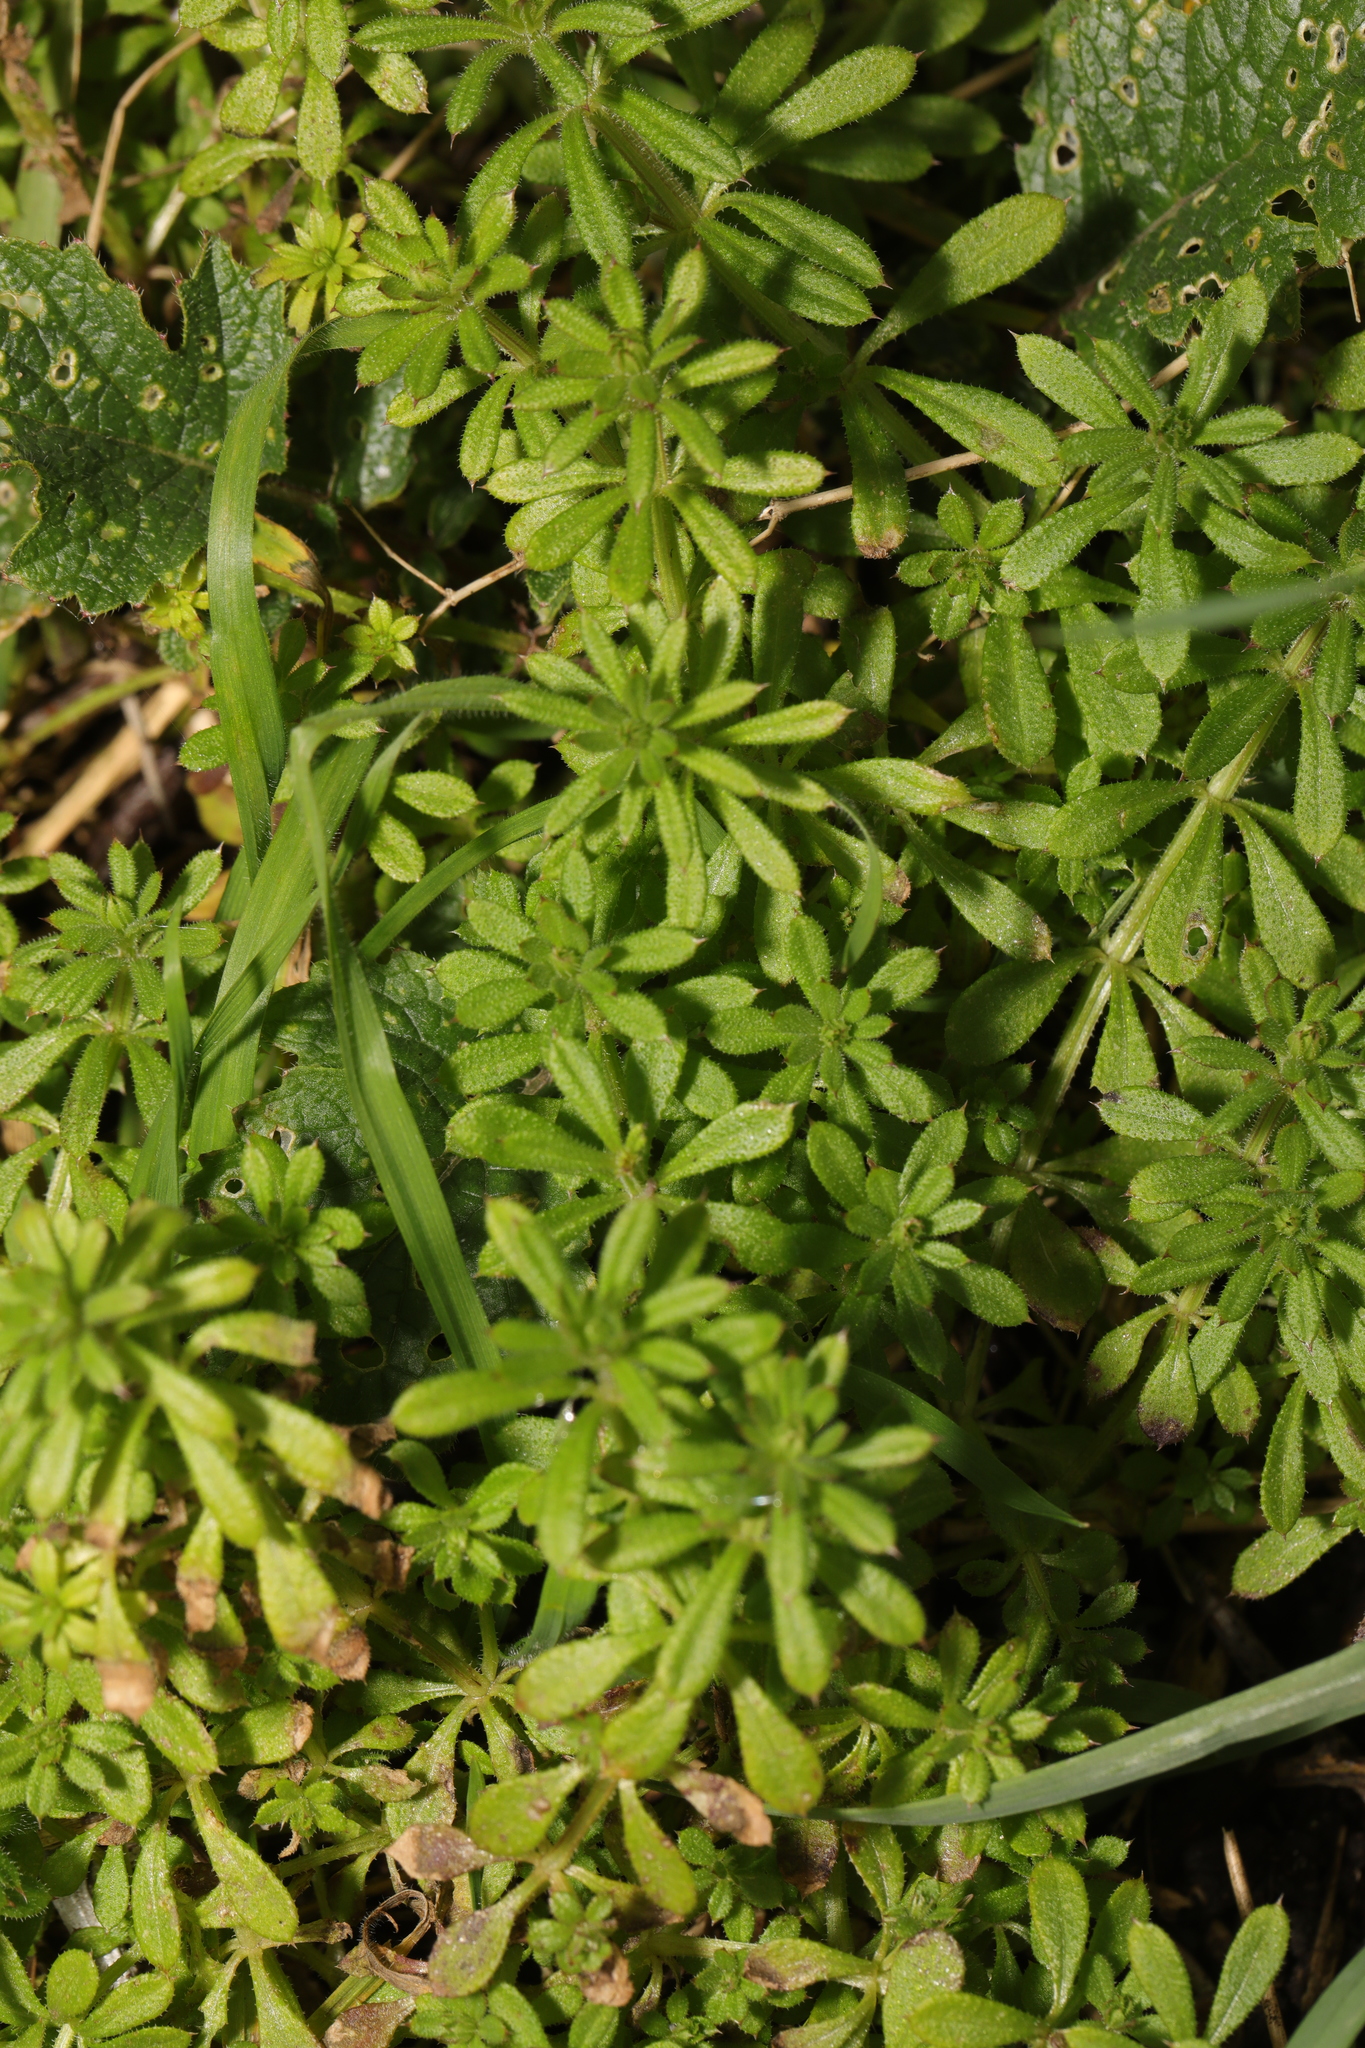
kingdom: Plantae
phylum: Tracheophyta
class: Magnoliopsida
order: Gentianales
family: Rubiaceae
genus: Galium
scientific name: Galium aparine
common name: Cleavers
